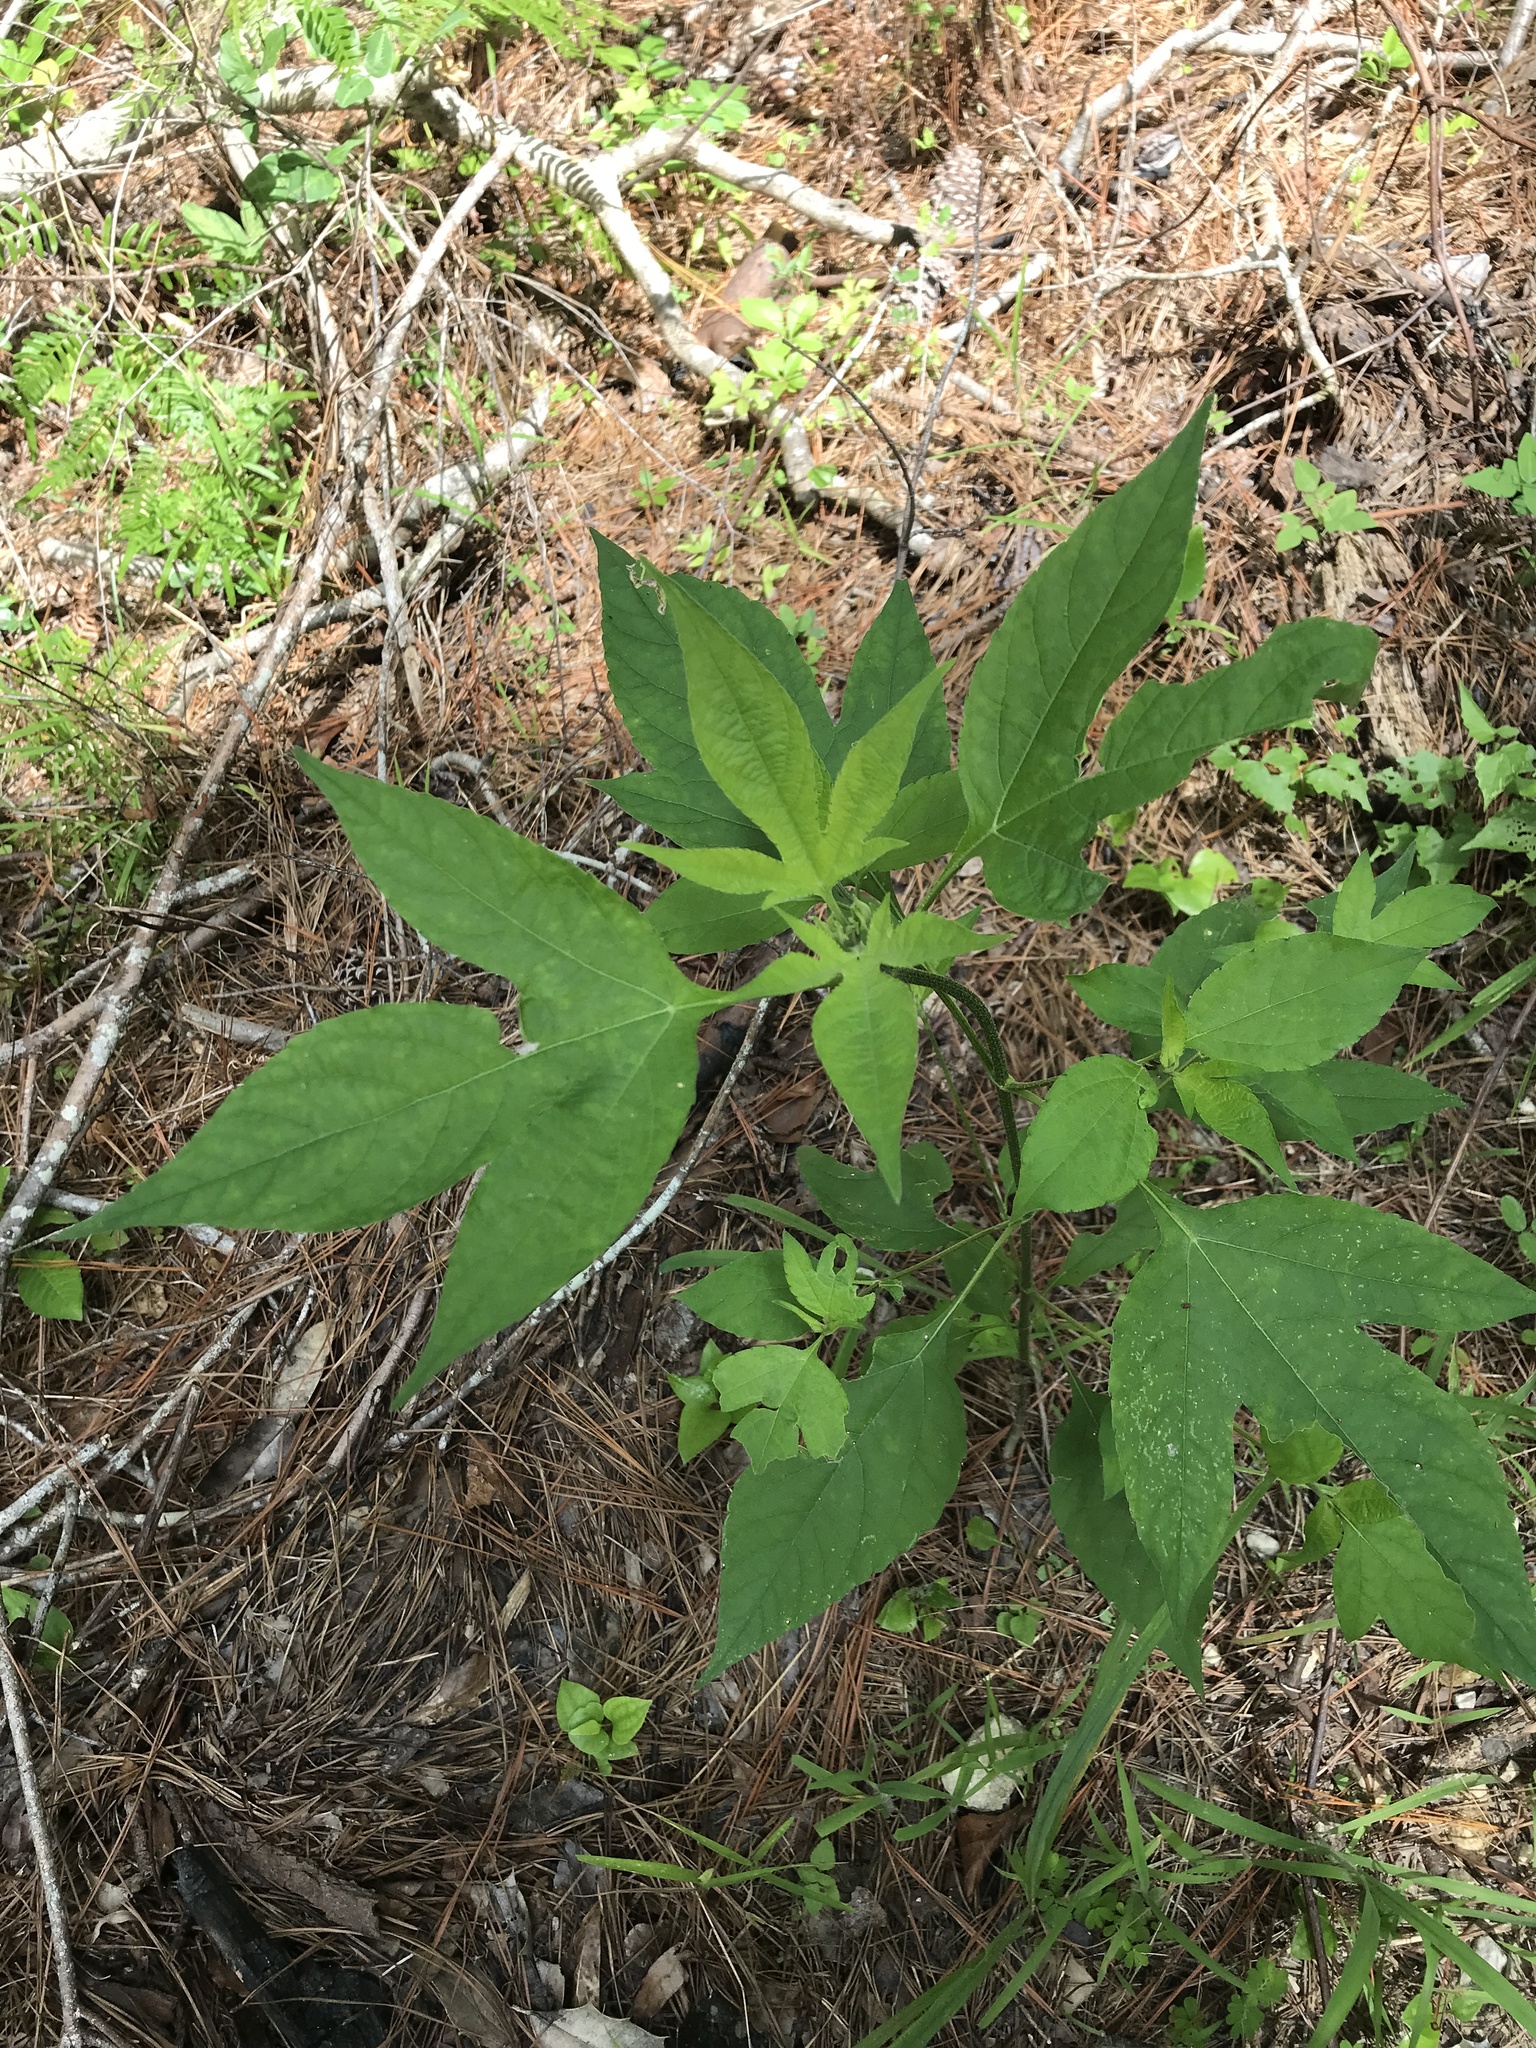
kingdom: Plantae
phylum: Tracheophyta
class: Magnoliopsida
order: Asterales
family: Asteraceae
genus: Ambrosia
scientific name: Ambrosia trifida
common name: Giant ragweed
